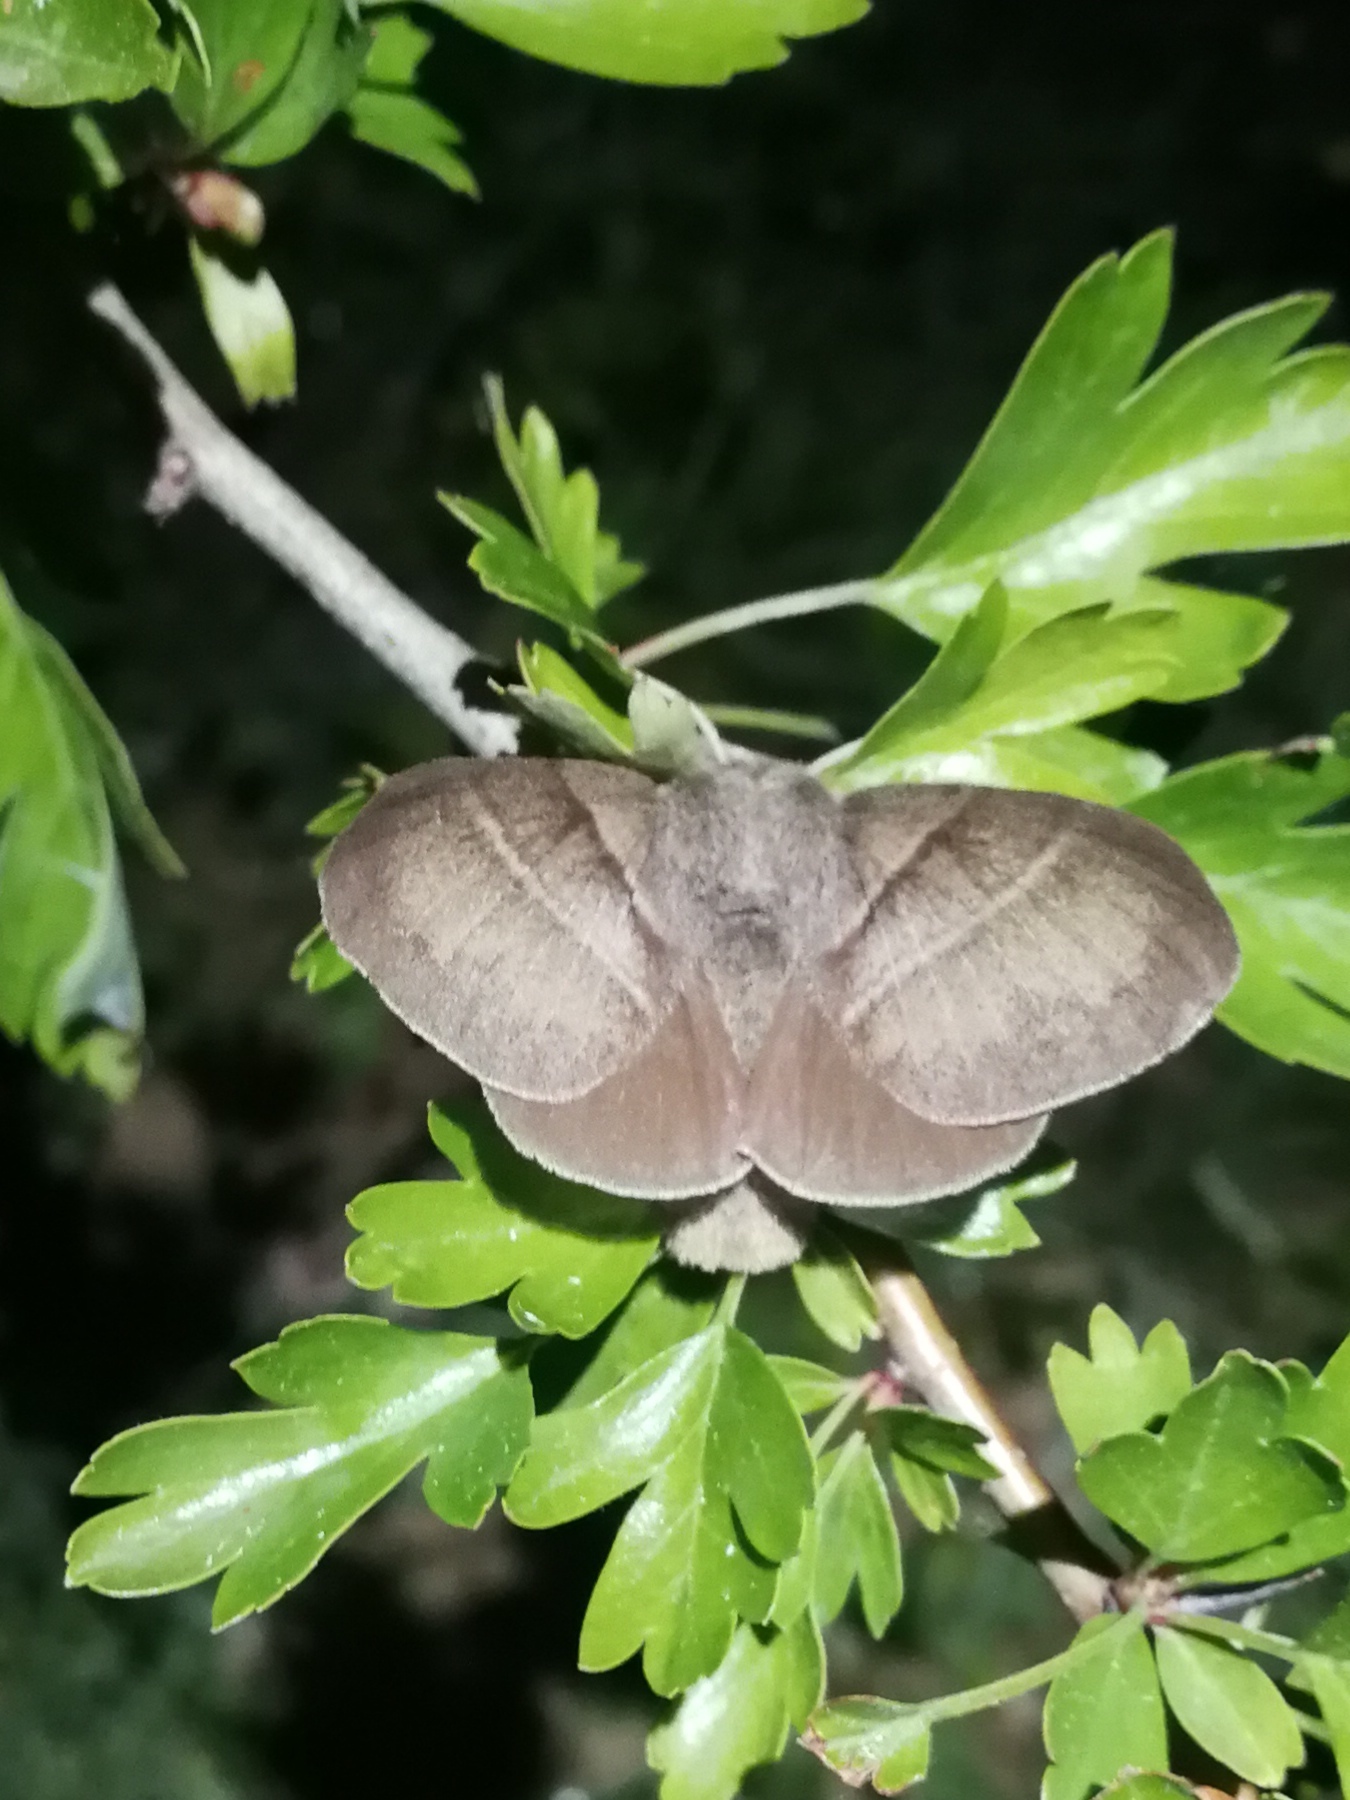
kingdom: Animalia
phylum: Arthropoda
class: Insecta
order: Lepidoptera
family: Lasiocampidae
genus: Macrothylacia
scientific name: Macrothylacia rubi
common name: Fox moth
